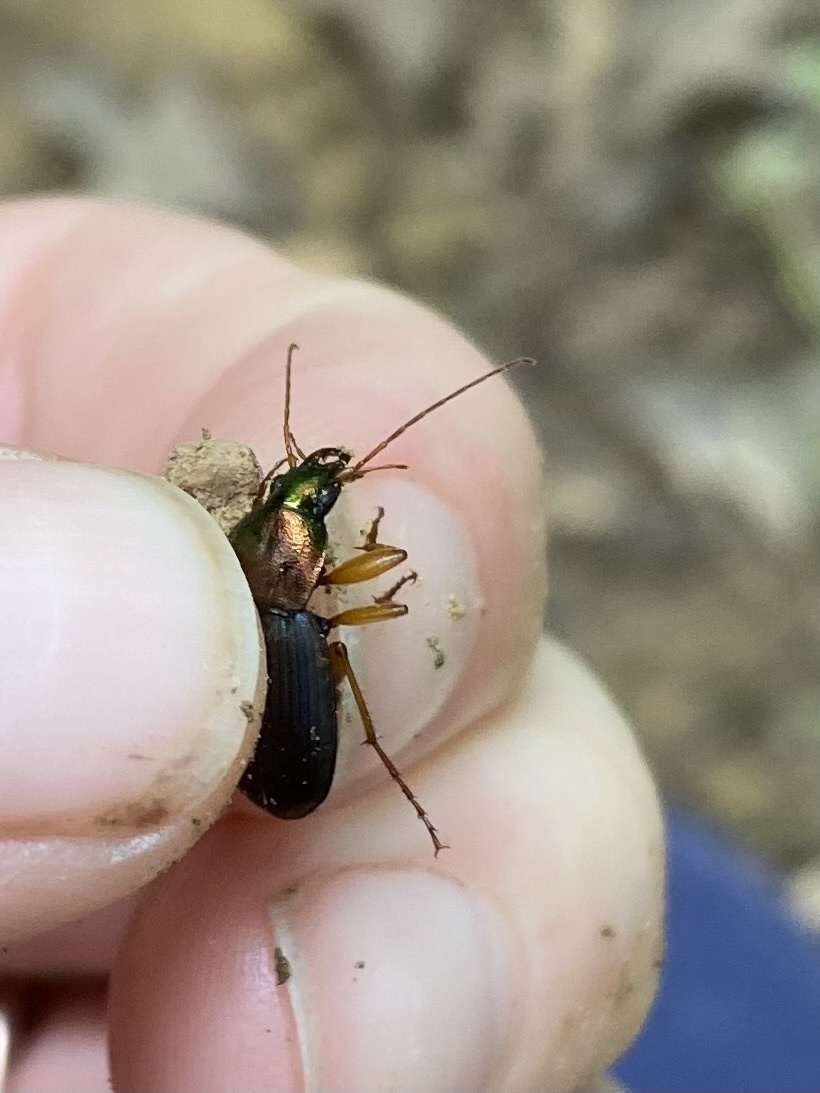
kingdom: Animalia
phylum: Arthropoda
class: Insecta
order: Coleoptera
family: Carabidae
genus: Chlaenius
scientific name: Chlaenius aestivus
